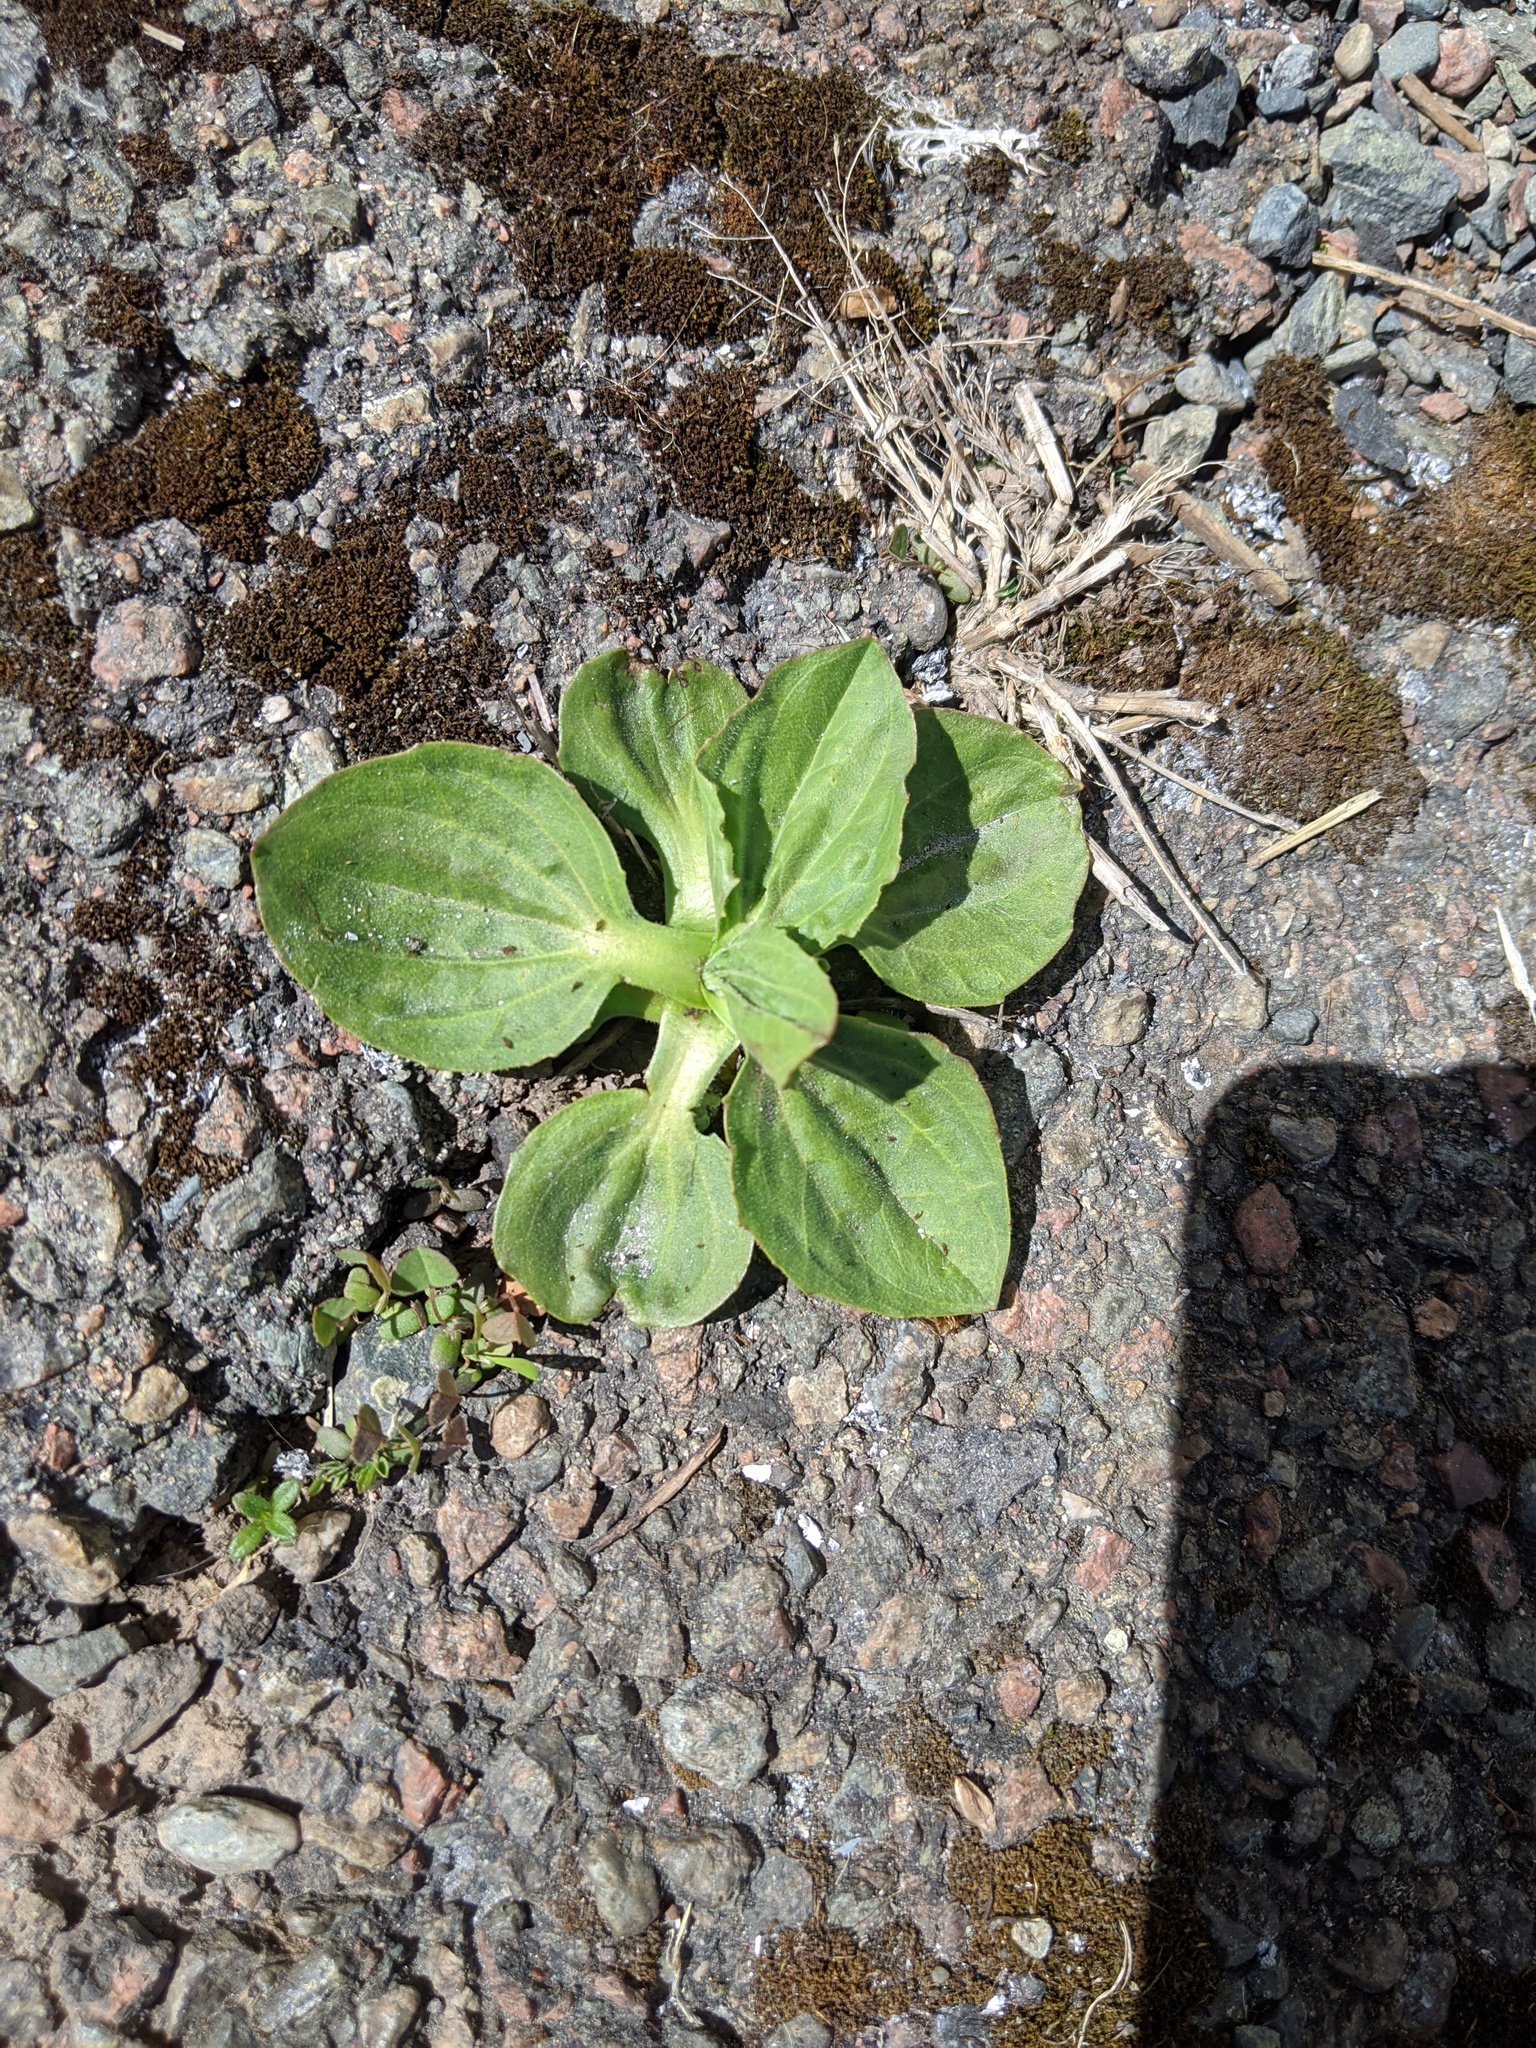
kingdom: Plantae
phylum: Tracheophyta
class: Magnoliopsida
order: Lamiales
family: Plantaginaceae
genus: Plantago
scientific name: Plantago major
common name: Common plantain
